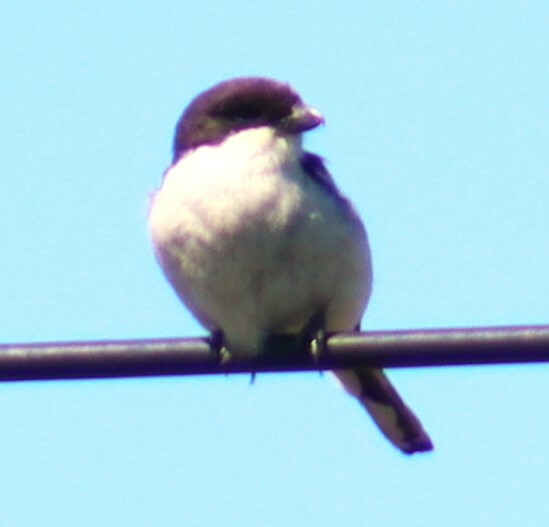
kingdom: Animalia
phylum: Chordata
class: Aves
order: Passeriformes
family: Laniidae
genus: Lanius
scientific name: Lanius collaris
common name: Southern fiscal
